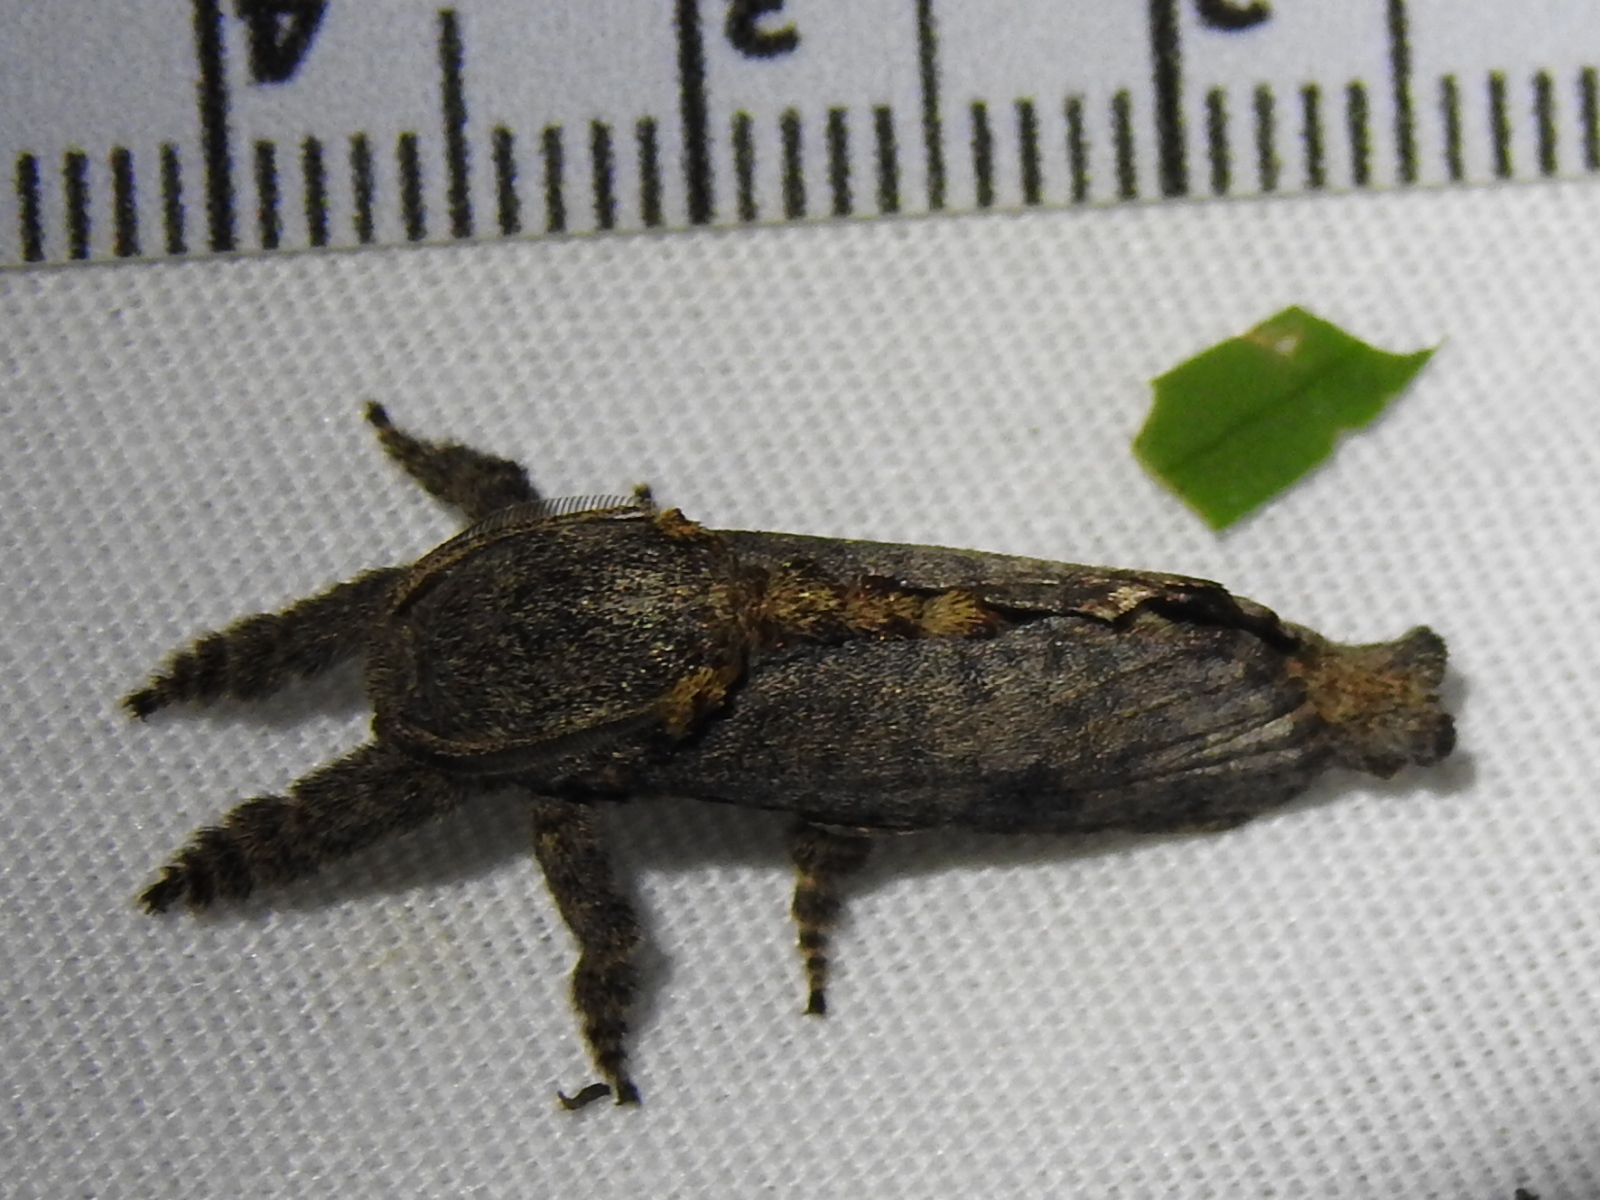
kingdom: Animalia
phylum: Arthropoda
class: Insecta
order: Lepidoptera
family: Cossidae
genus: Givira
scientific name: Givira arbeloides
